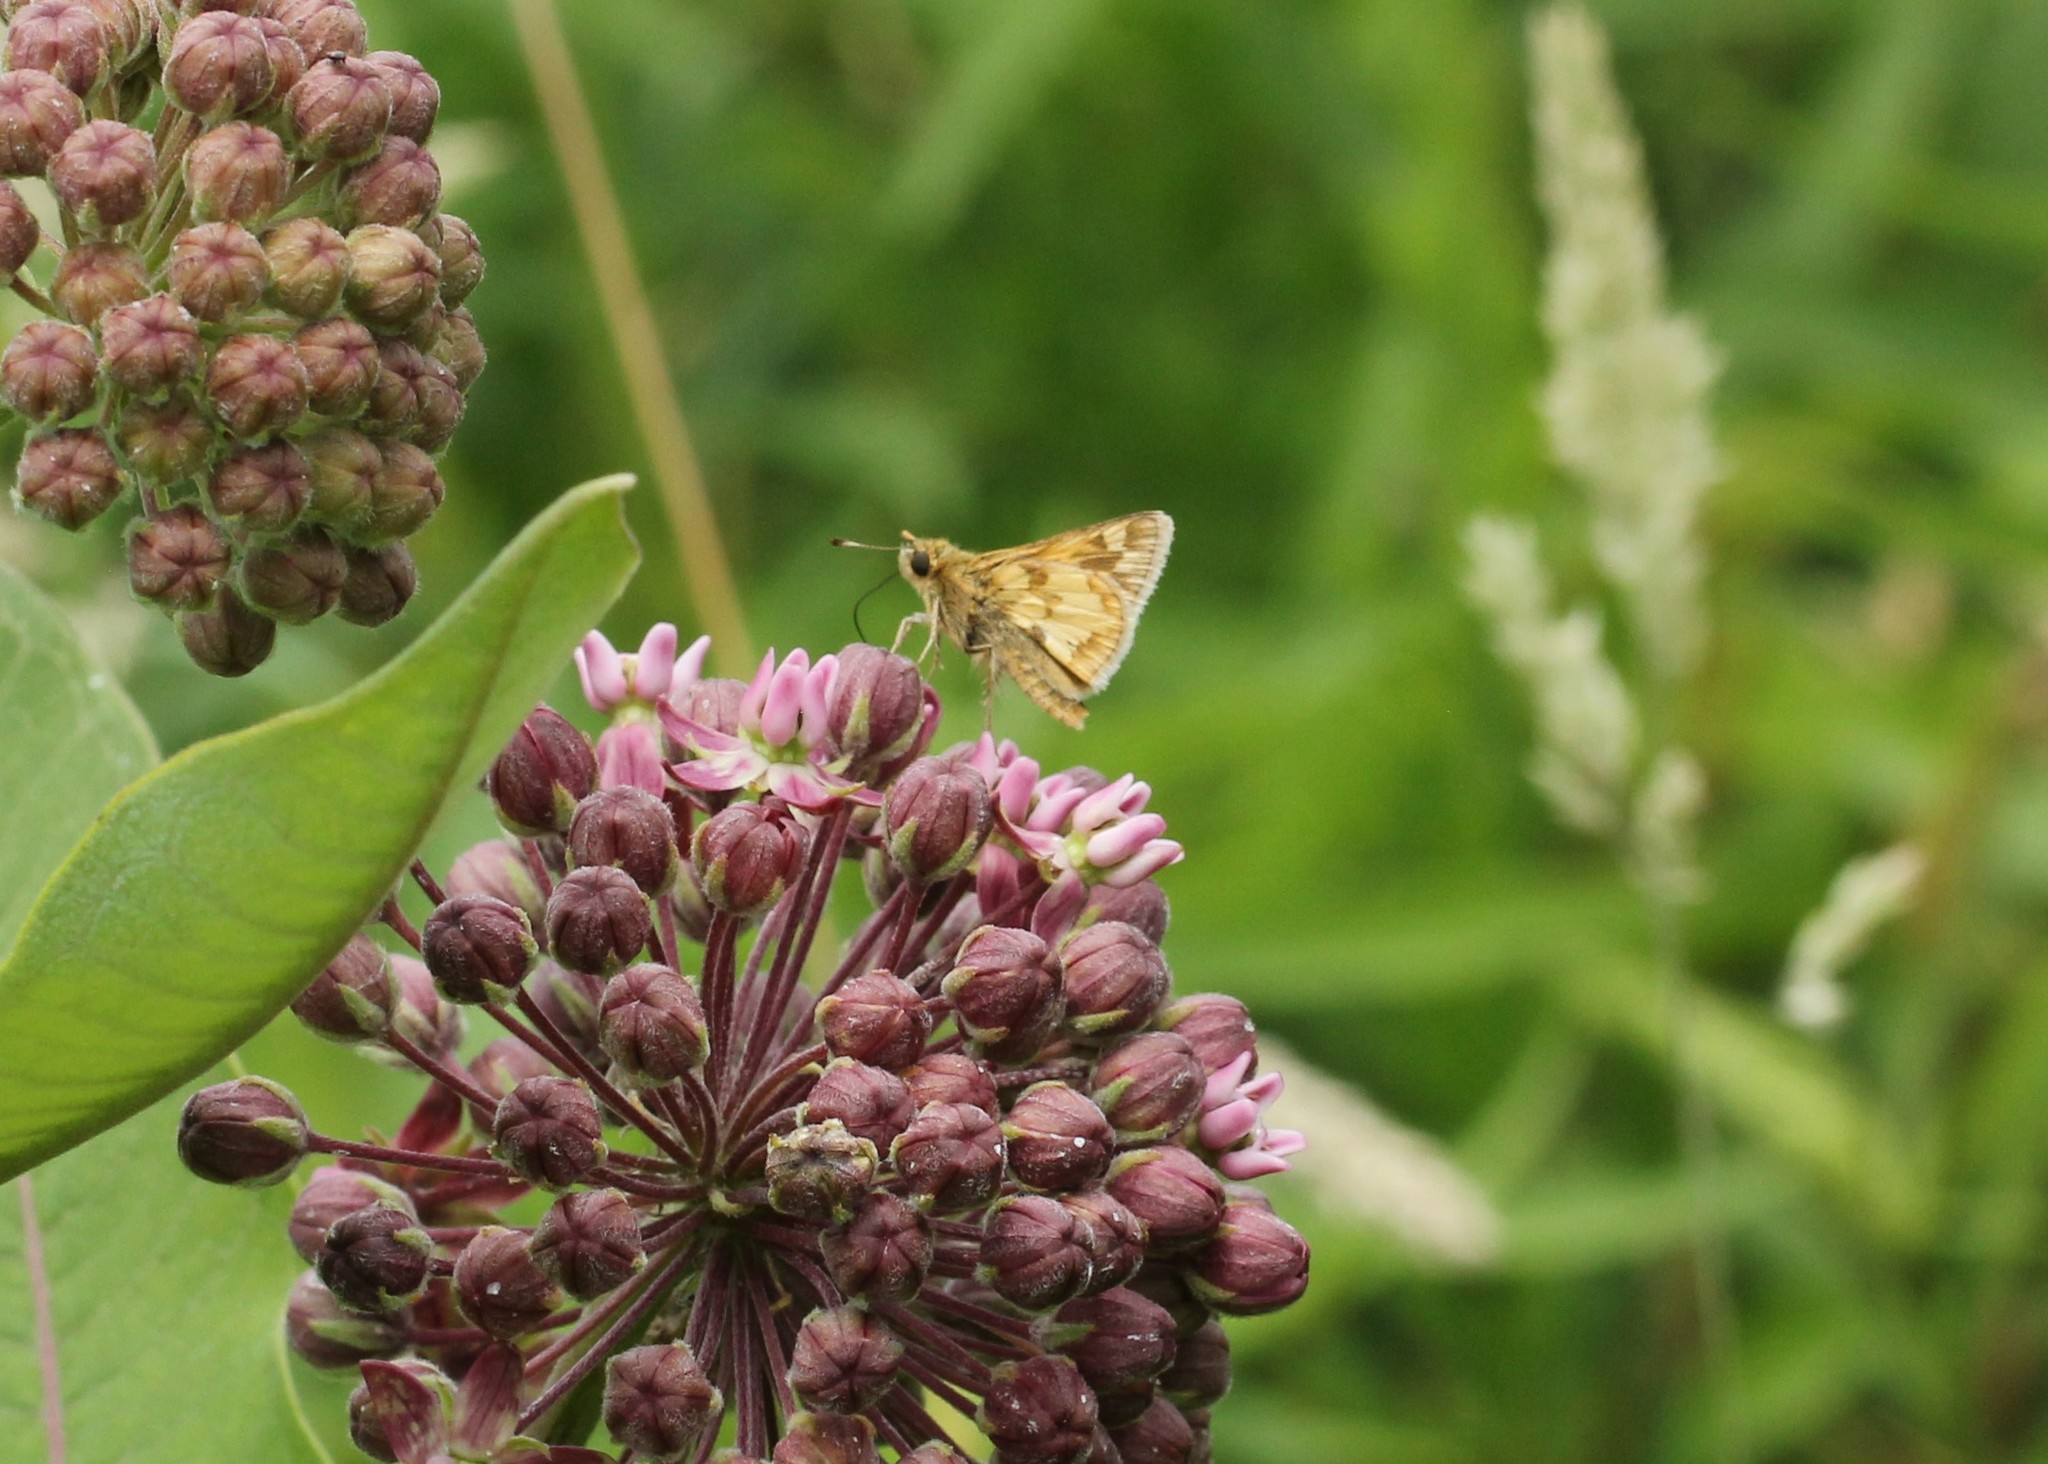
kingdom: Animalia
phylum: Arthropoda
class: Insecta
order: Lepidoptera
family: Hesperiidae
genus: Polites
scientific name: Polites coras
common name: Peck's skipper
